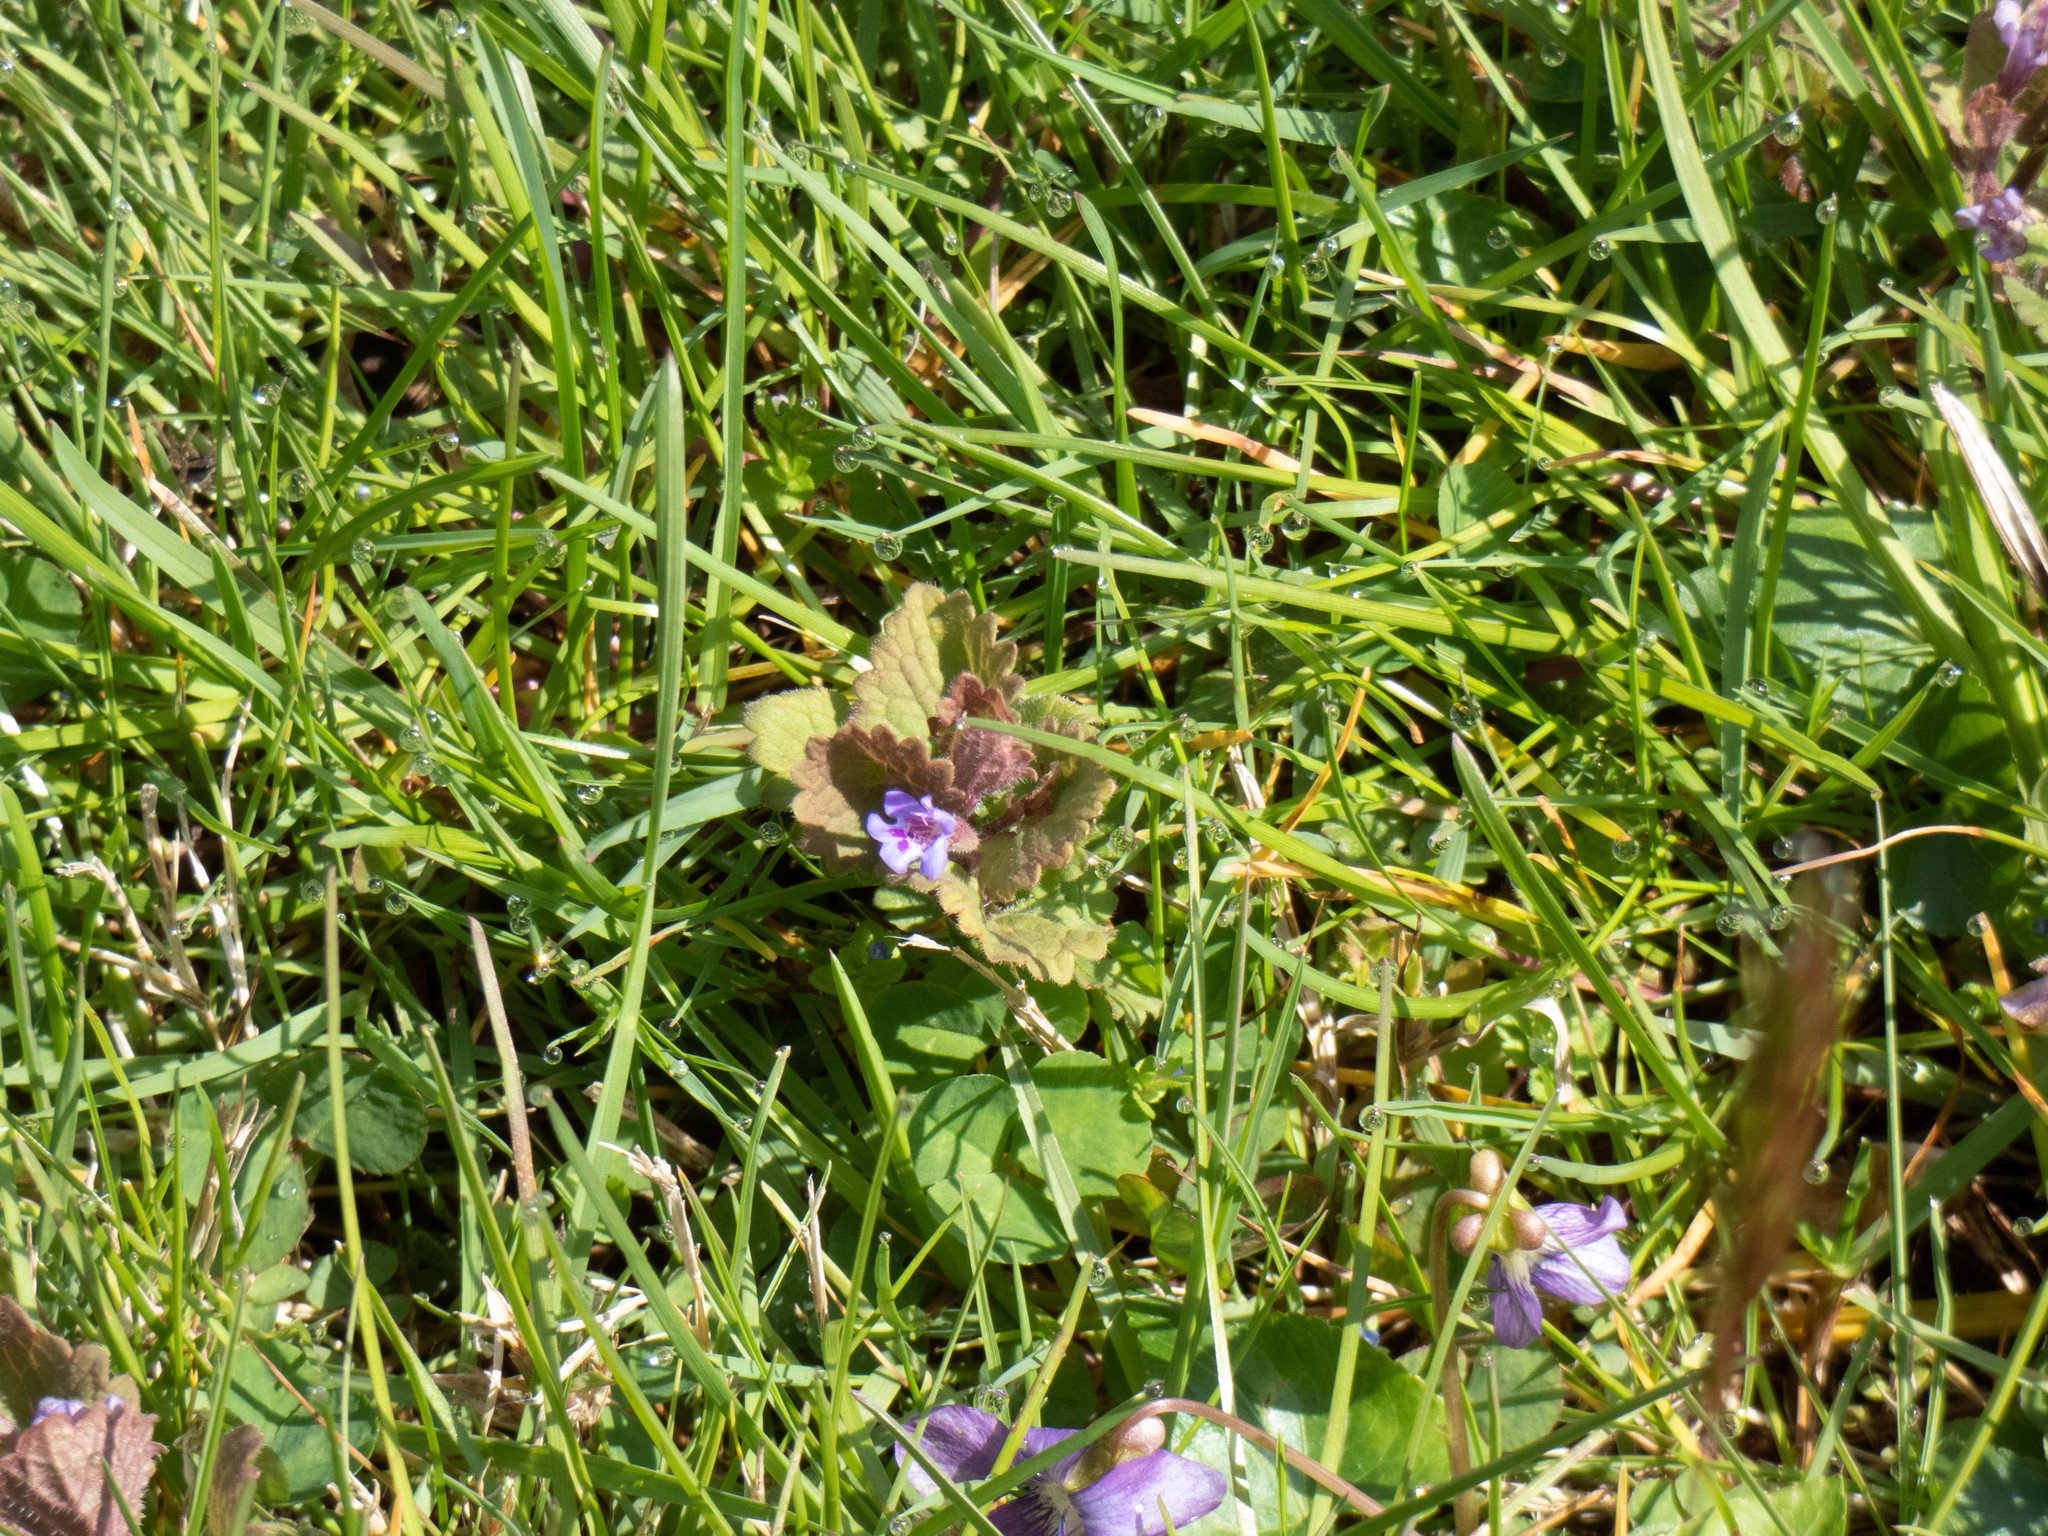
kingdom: Plantae
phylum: Tracheophyta
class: Magnoliopsida
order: Lamiales
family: Lamiaceae
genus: Glechoma
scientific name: Glechoma hederacea
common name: Ground ivy
